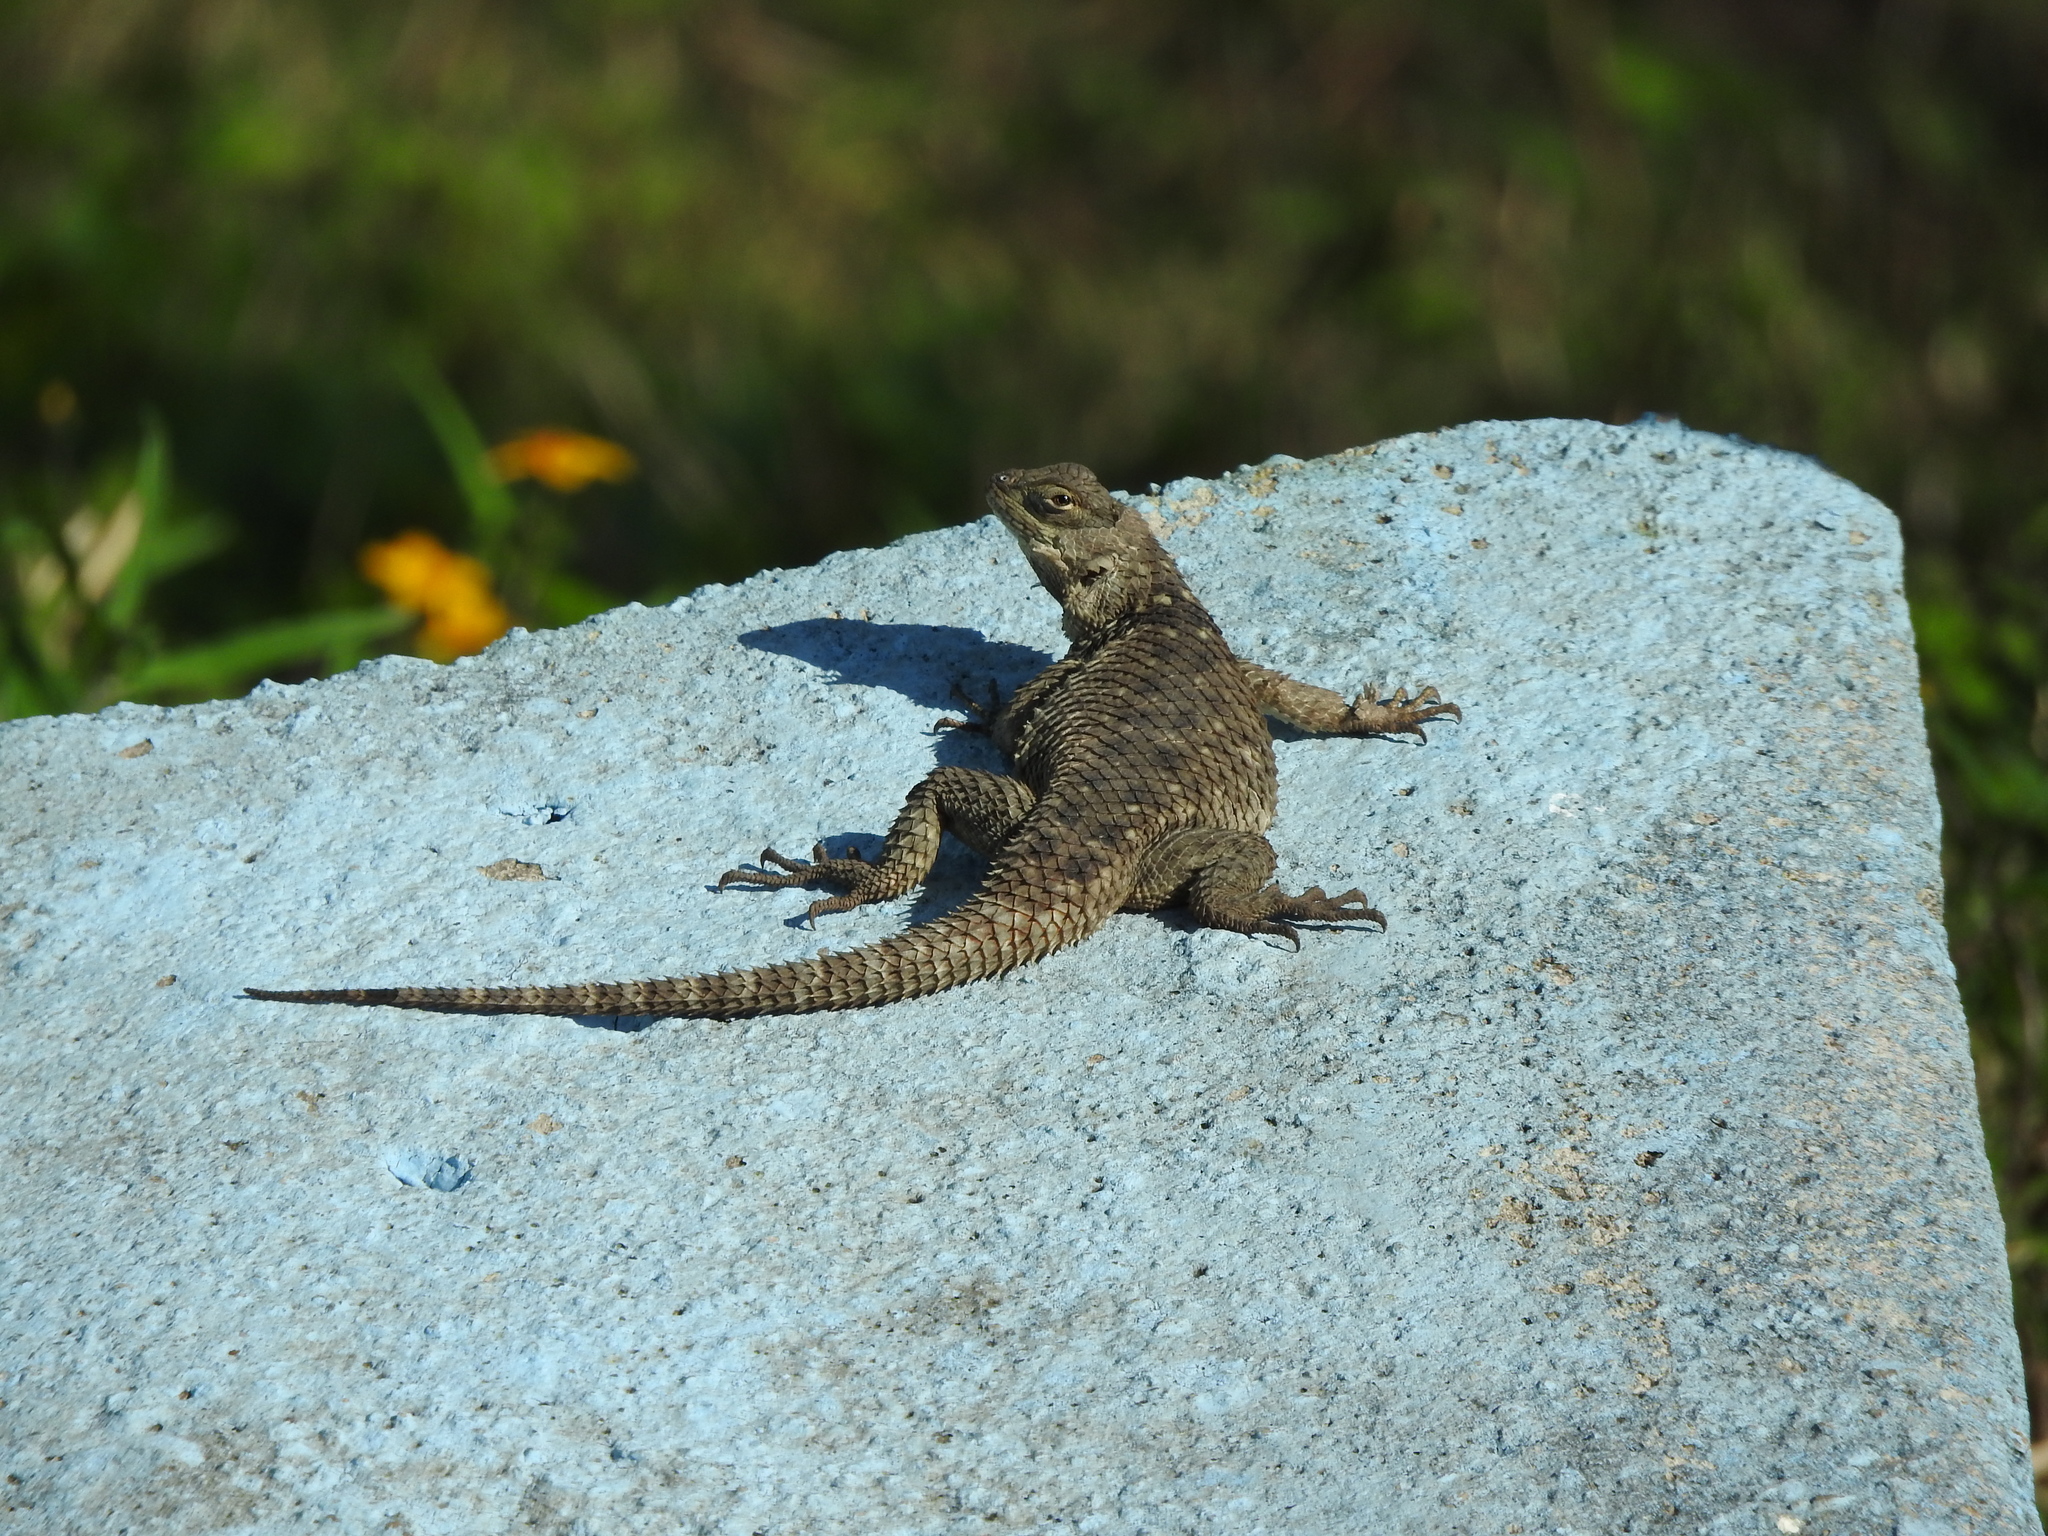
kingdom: Animalia
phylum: Chordata
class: Squamata
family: Phrynosomatidae
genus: Sceloporus
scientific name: Sceloporus torquatus
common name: Central plateau torquate lizard [melanogaster]
